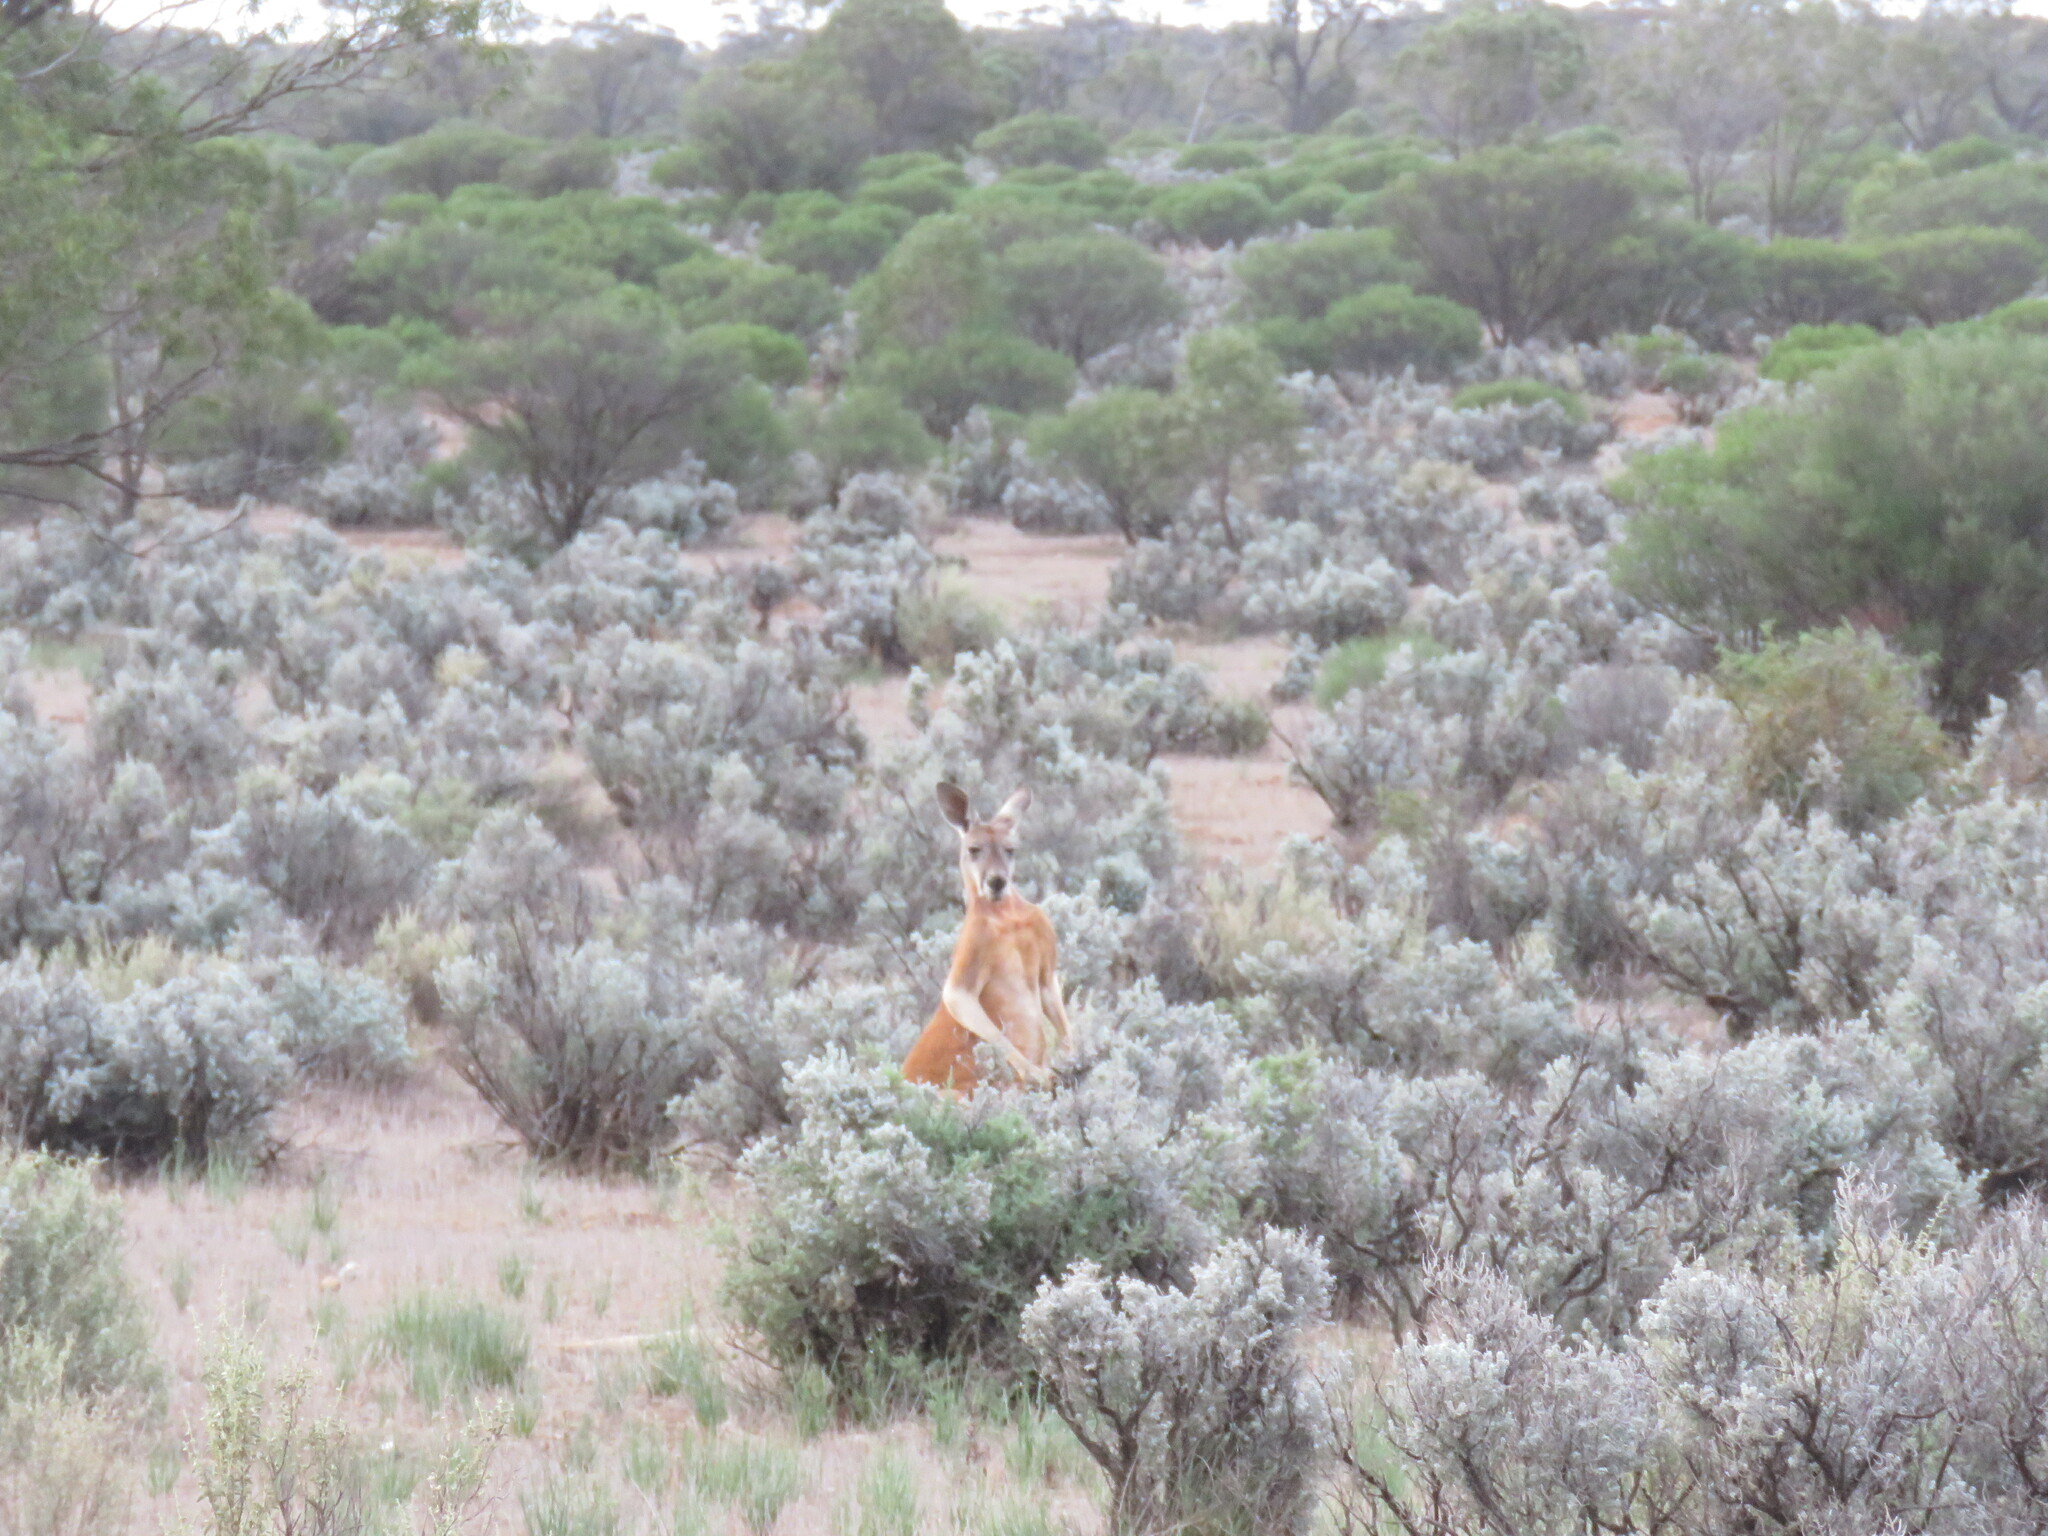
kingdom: Animalia
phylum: Chordata
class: Mammalia
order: Diprotodontia
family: Macropodidae
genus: Macropus
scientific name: Macropus rufus
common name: Red kangaroo
